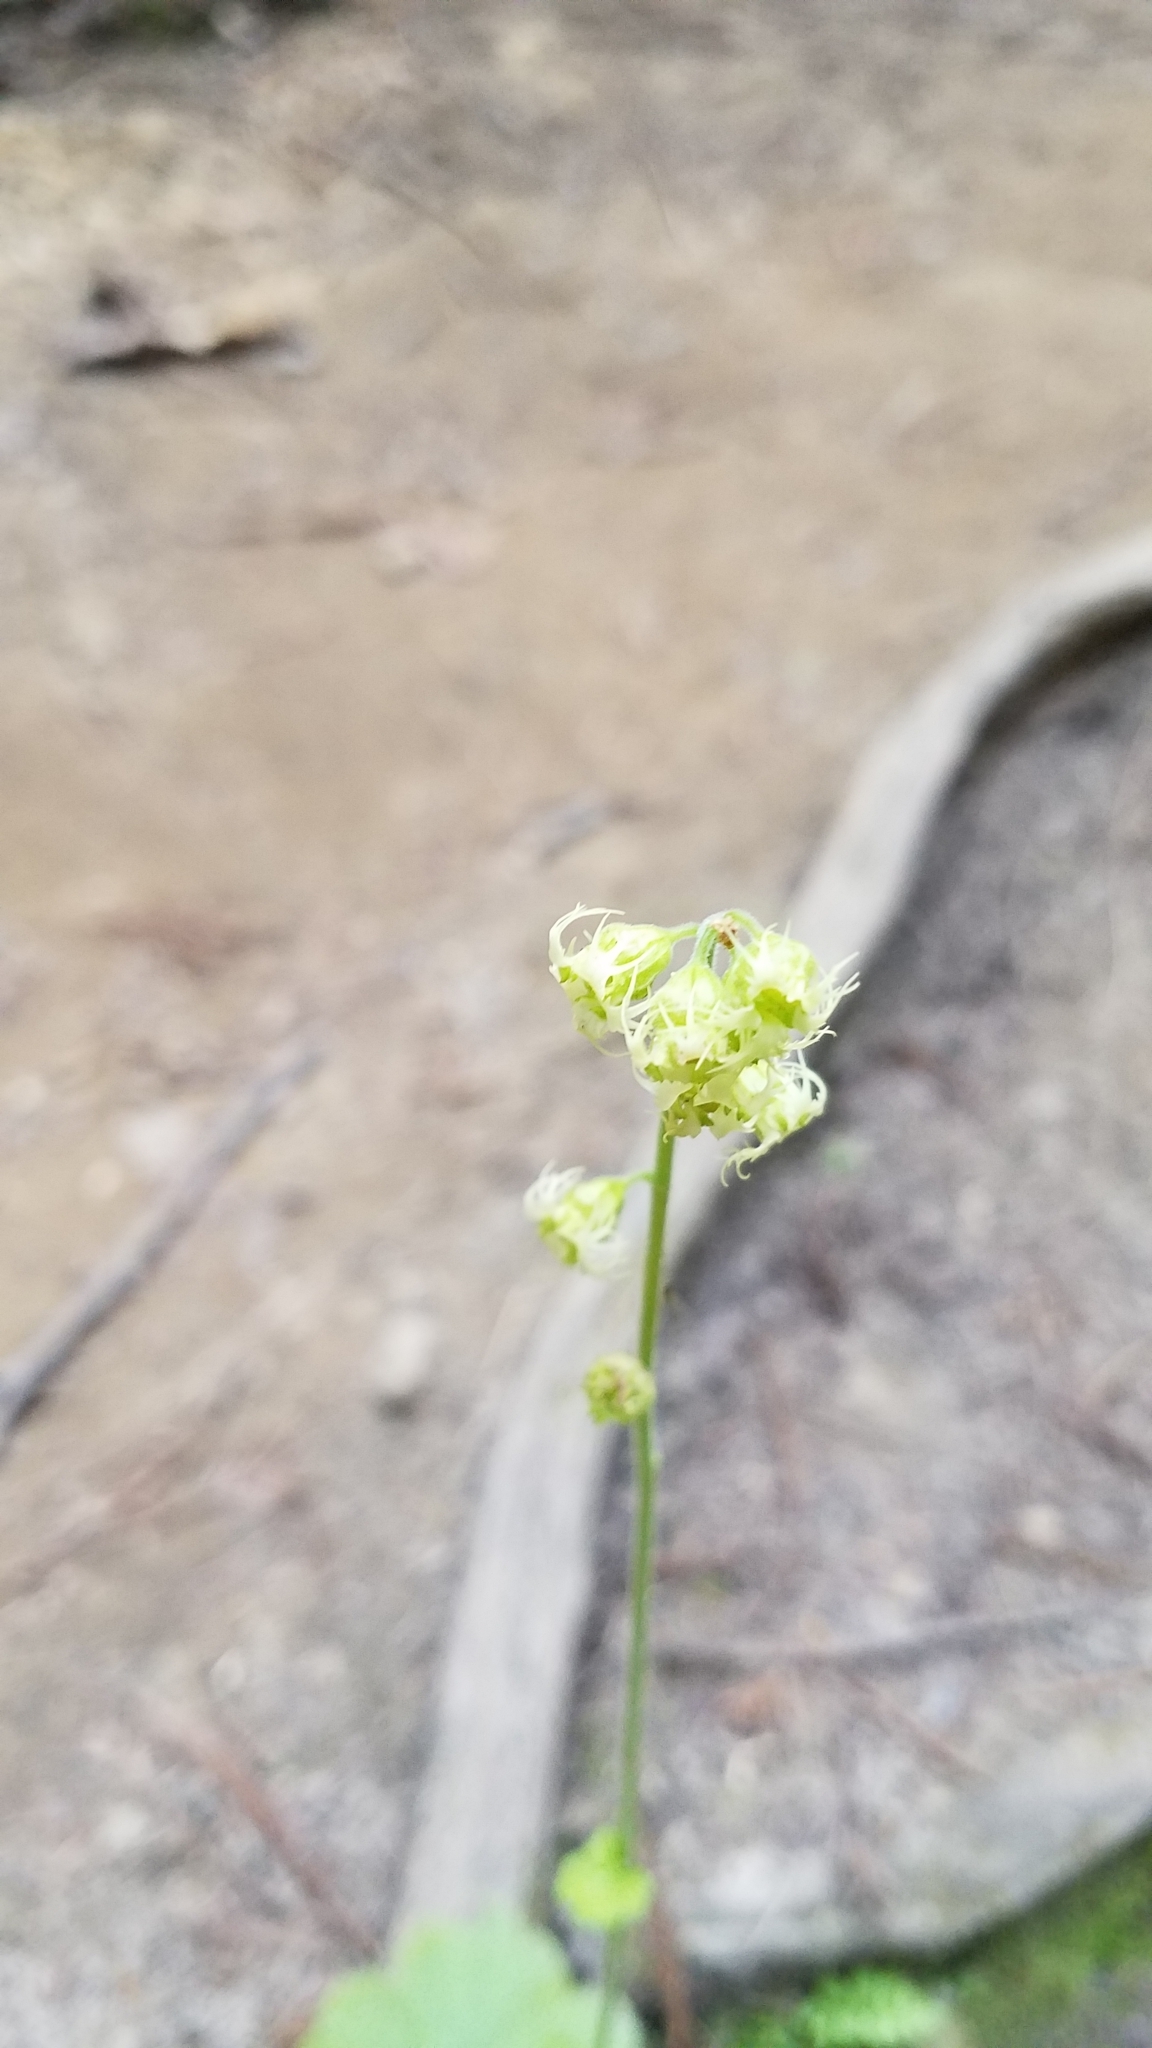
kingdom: Plantae
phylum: Tracheophyta
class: Magnoliopsida
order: Saxifragales
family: Saxifragaceae
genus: Tellima
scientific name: Tellima grandiflora
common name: Fringecups
